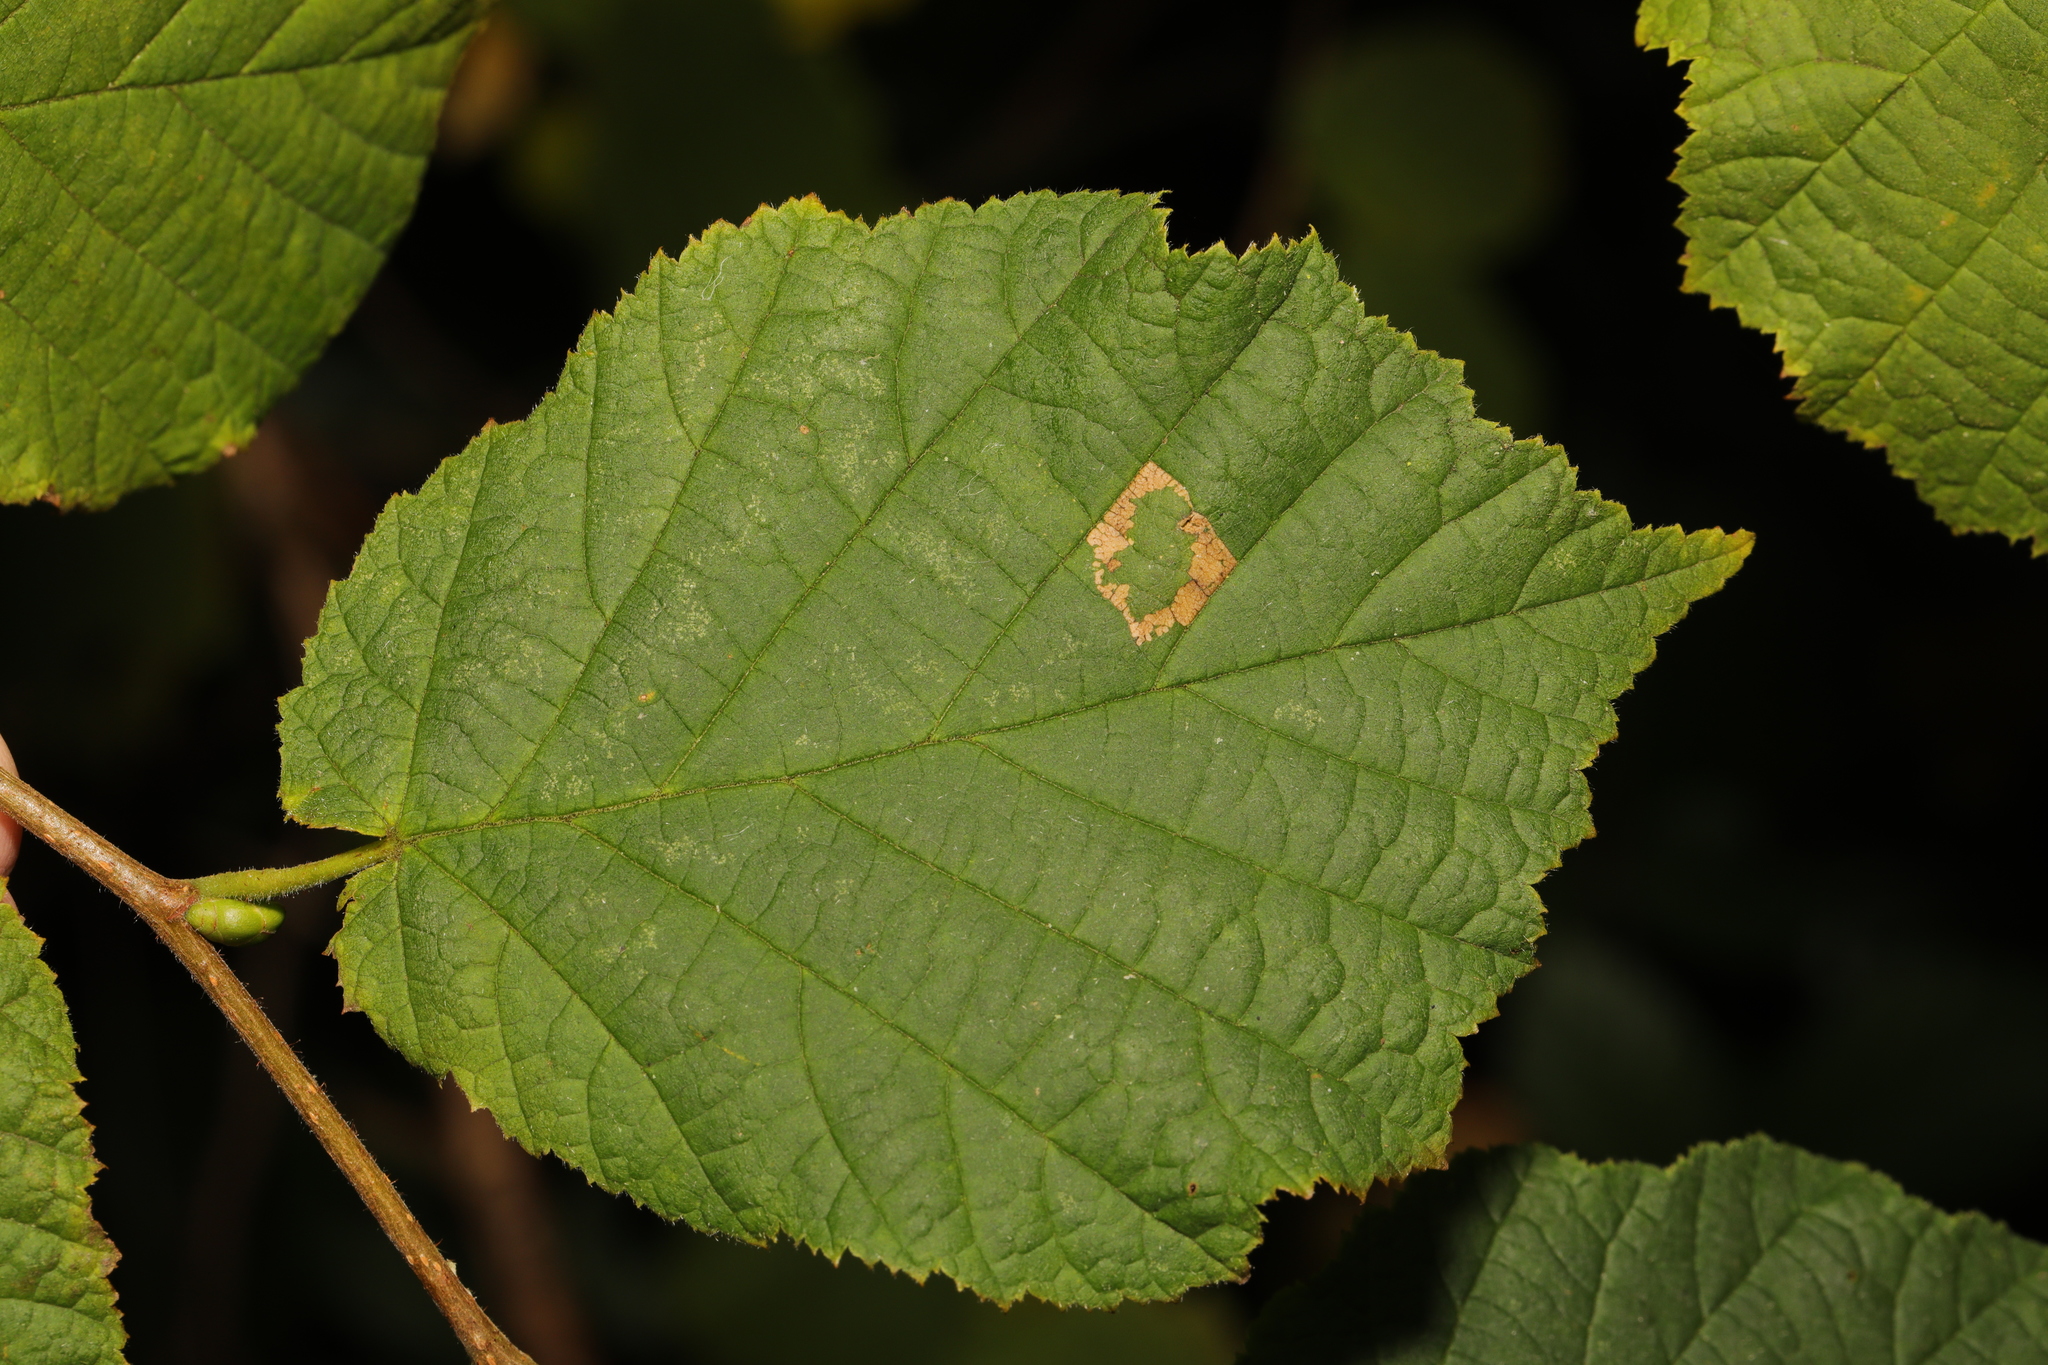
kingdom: Animalia
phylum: Arthropoda
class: Insecta
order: Lepidoptera
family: Gracillariidae
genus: Phyllonorycter
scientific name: Phyllonorycter nicellii
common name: Red hazel midget
